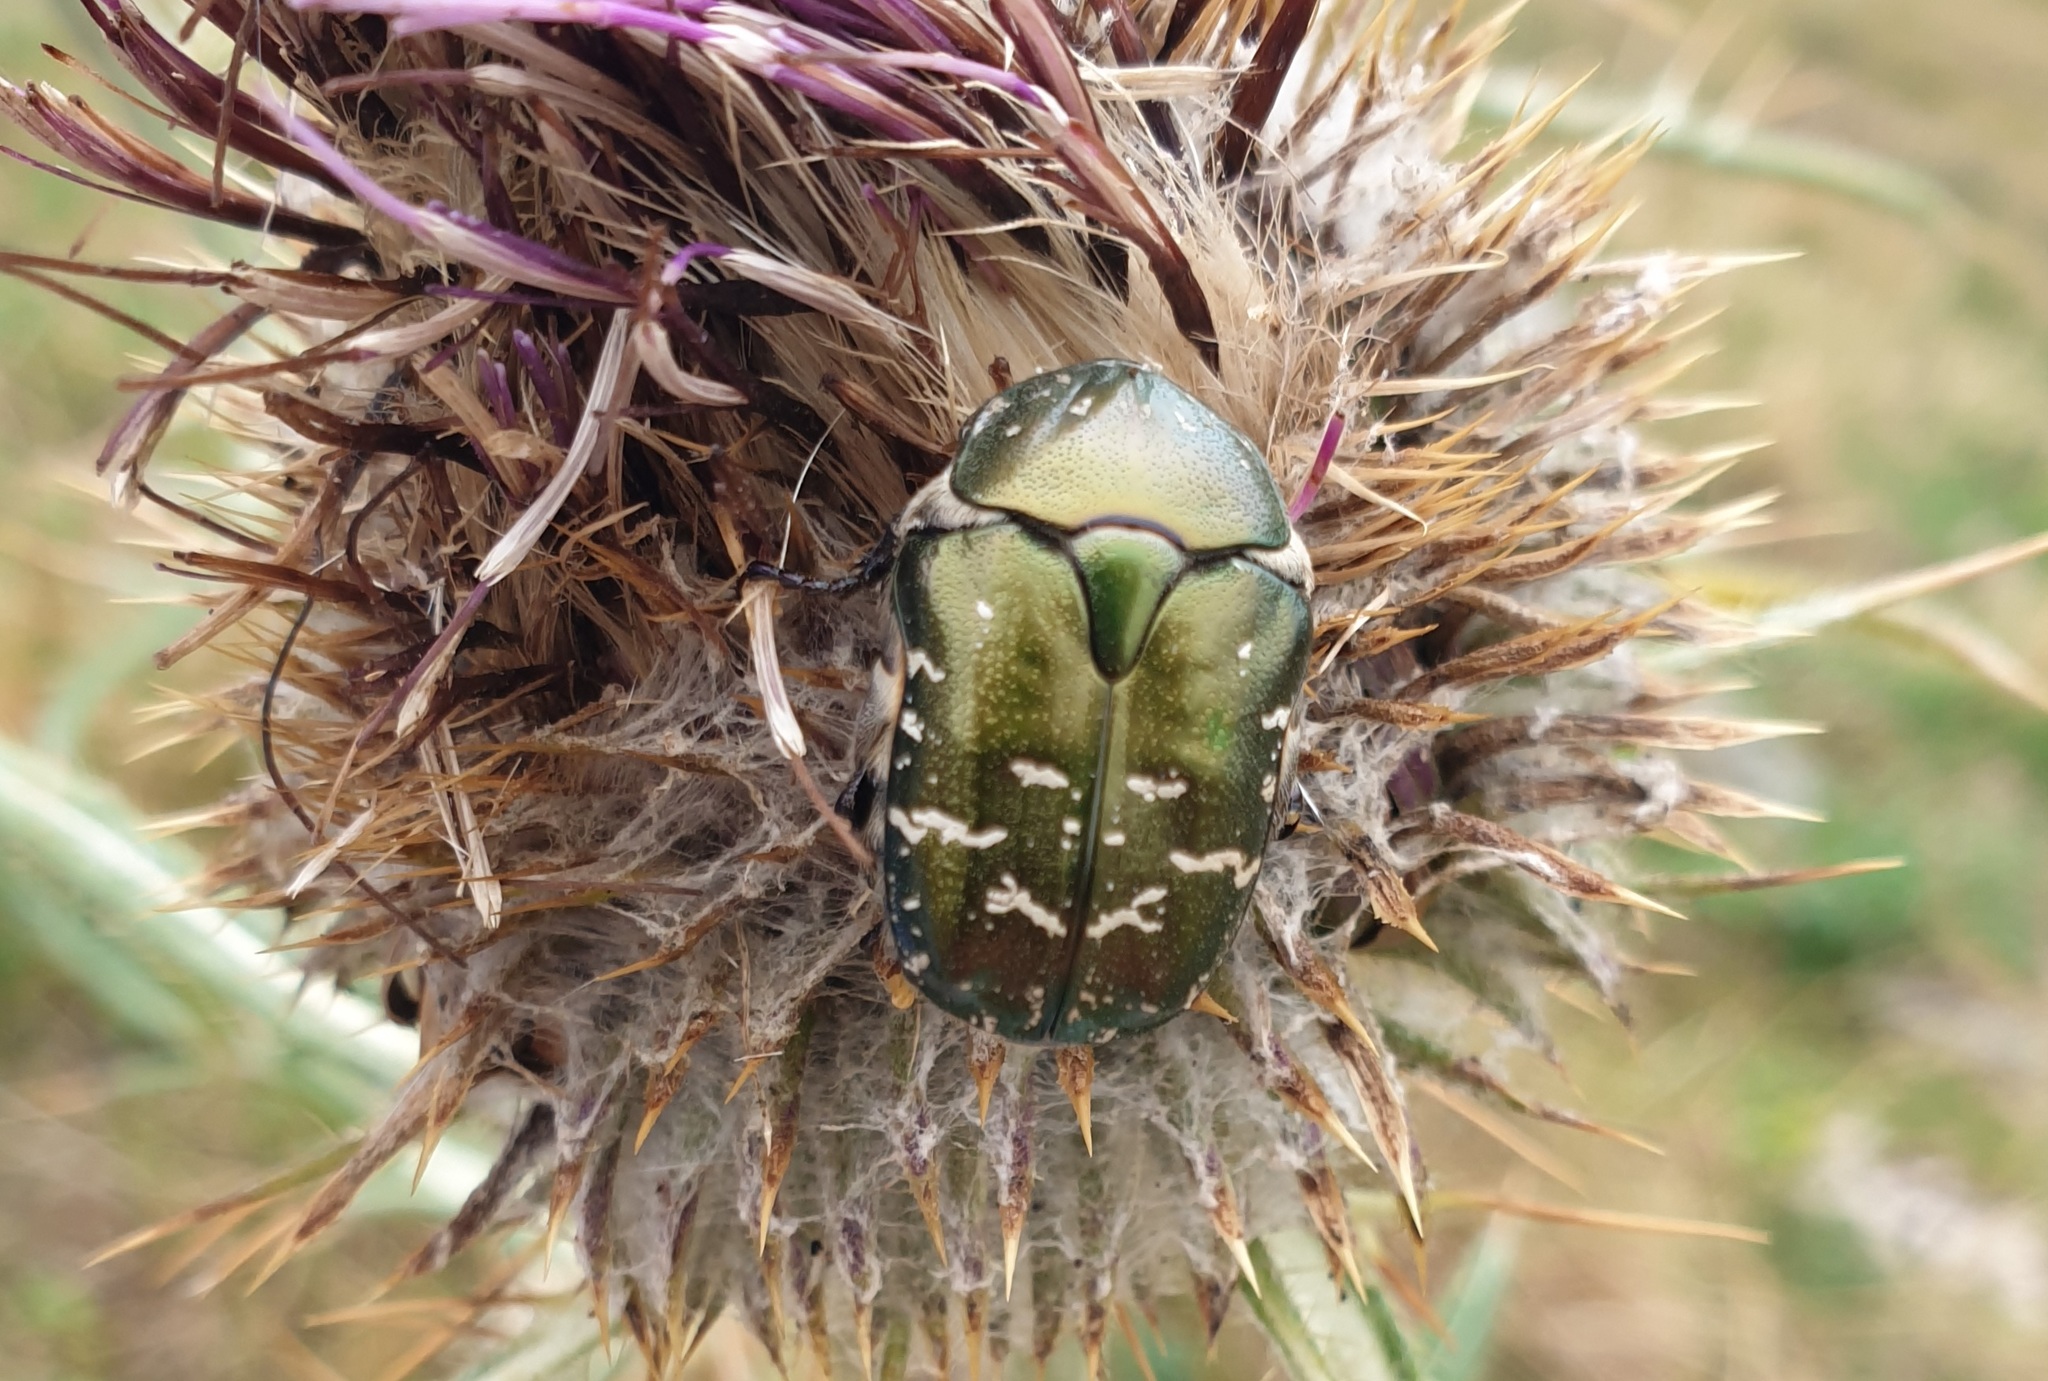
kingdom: Animalia
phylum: Arthropoda
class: Insecta
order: Coleoptera
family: Scarabaeidae
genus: Protaetia
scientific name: Protaetia cuprea
